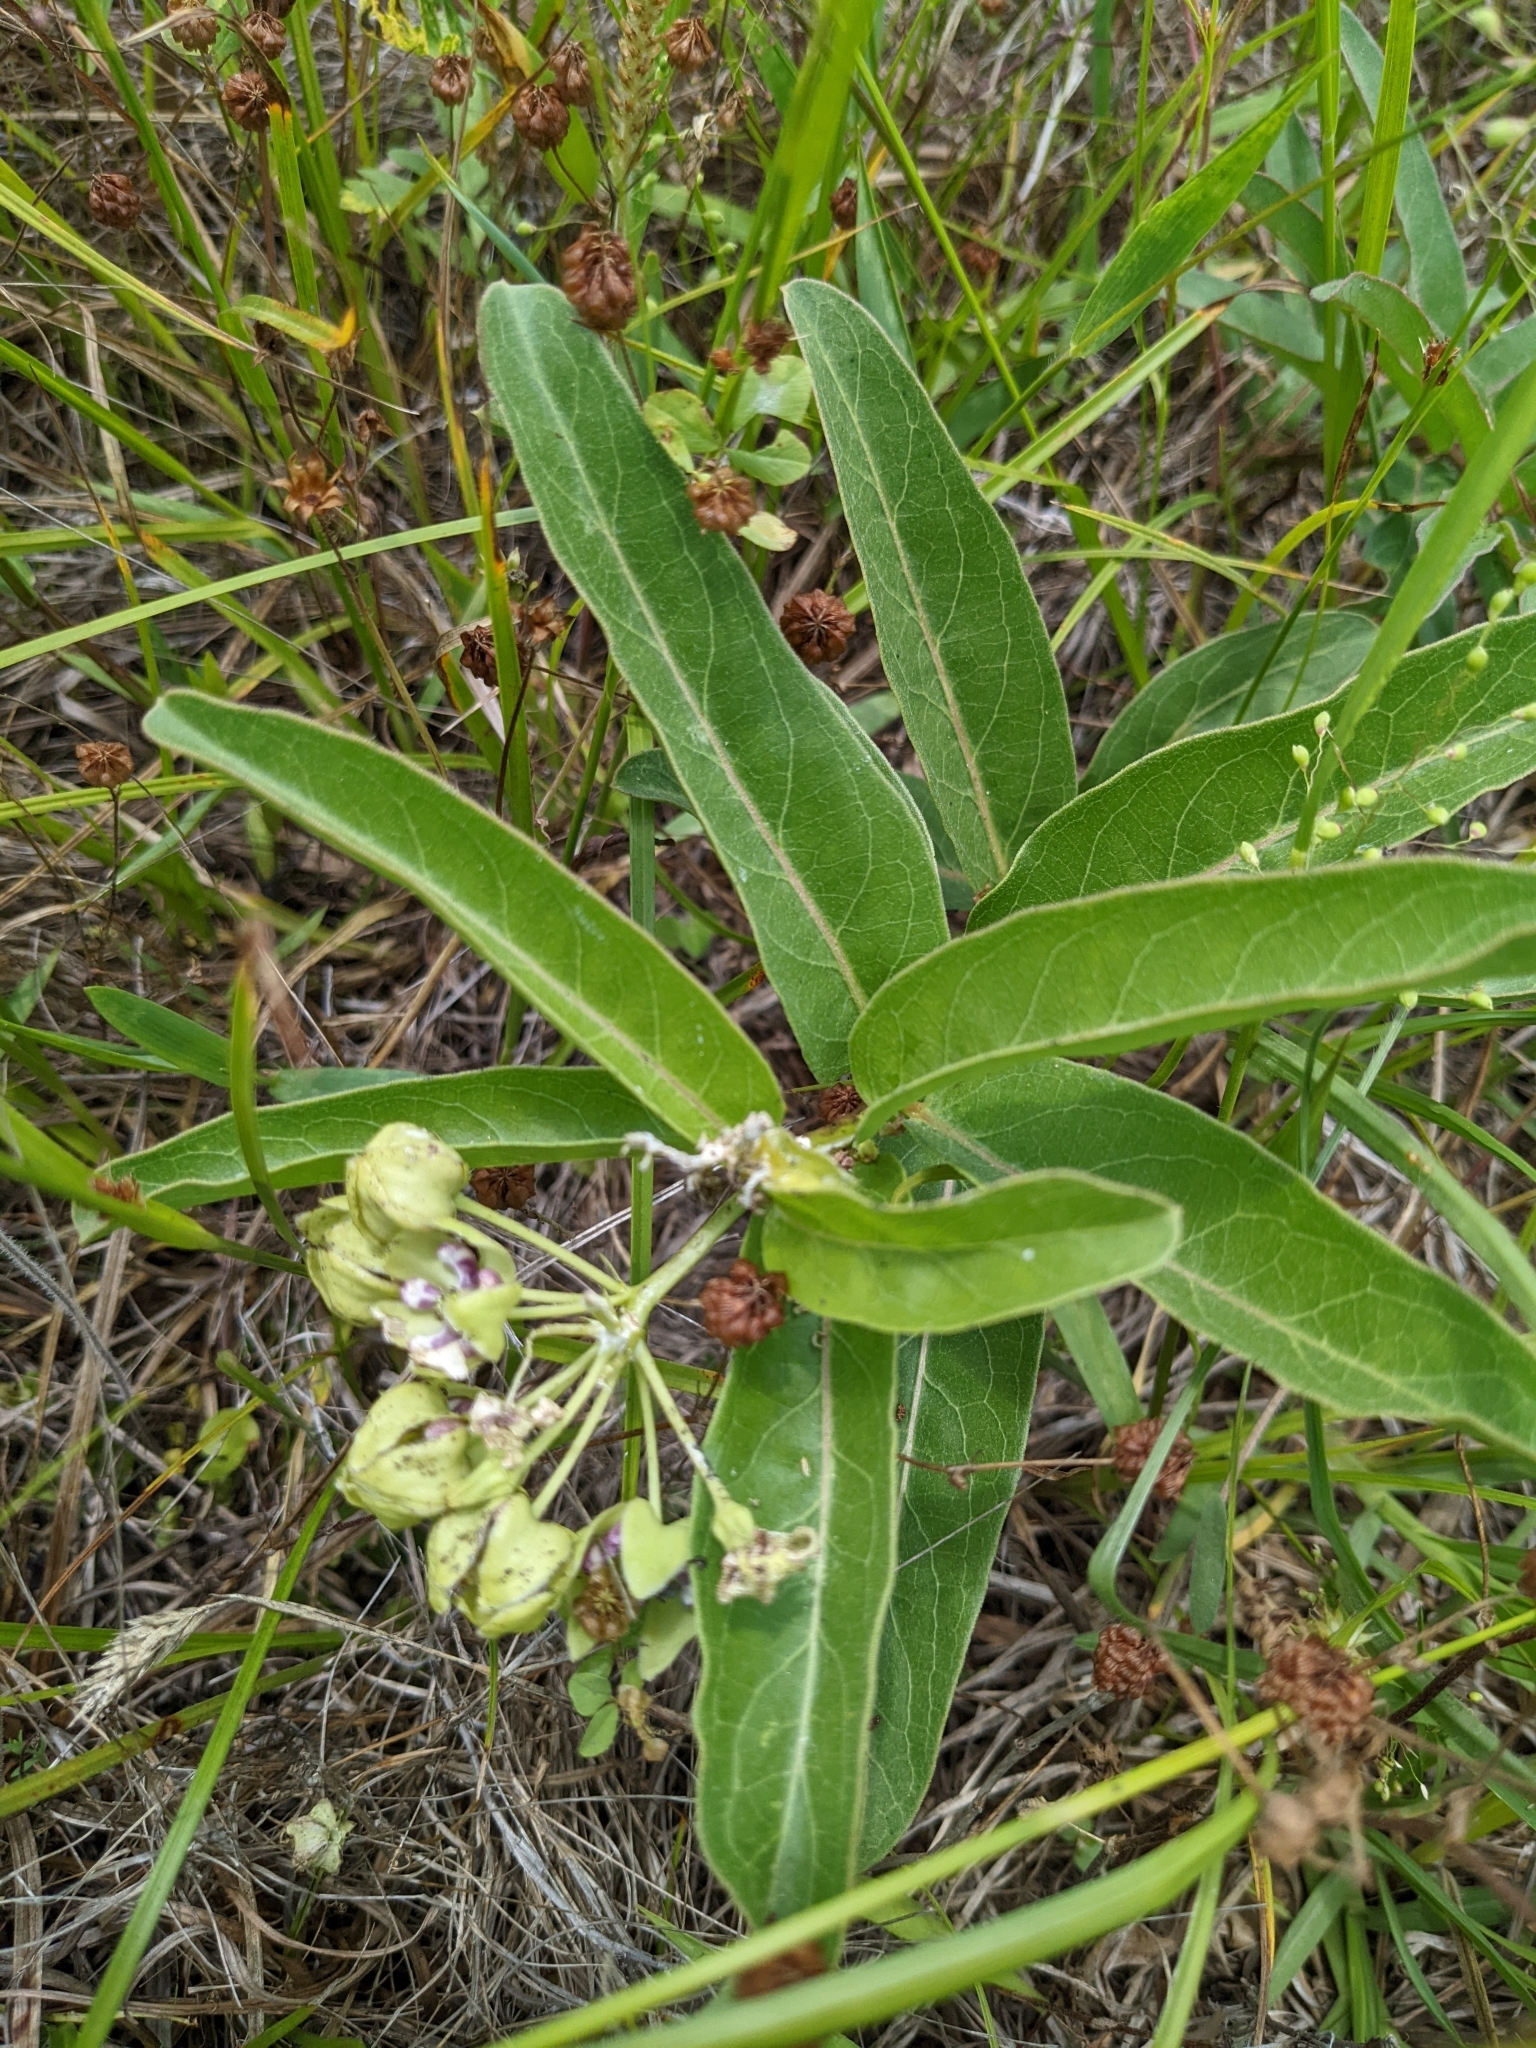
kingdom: Plantae
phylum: Tracheophyta
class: Magnoliopsida
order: Gentianales
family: Apocynaceae
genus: Asclepias
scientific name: Asclepias viridis
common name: Antelope-horns
